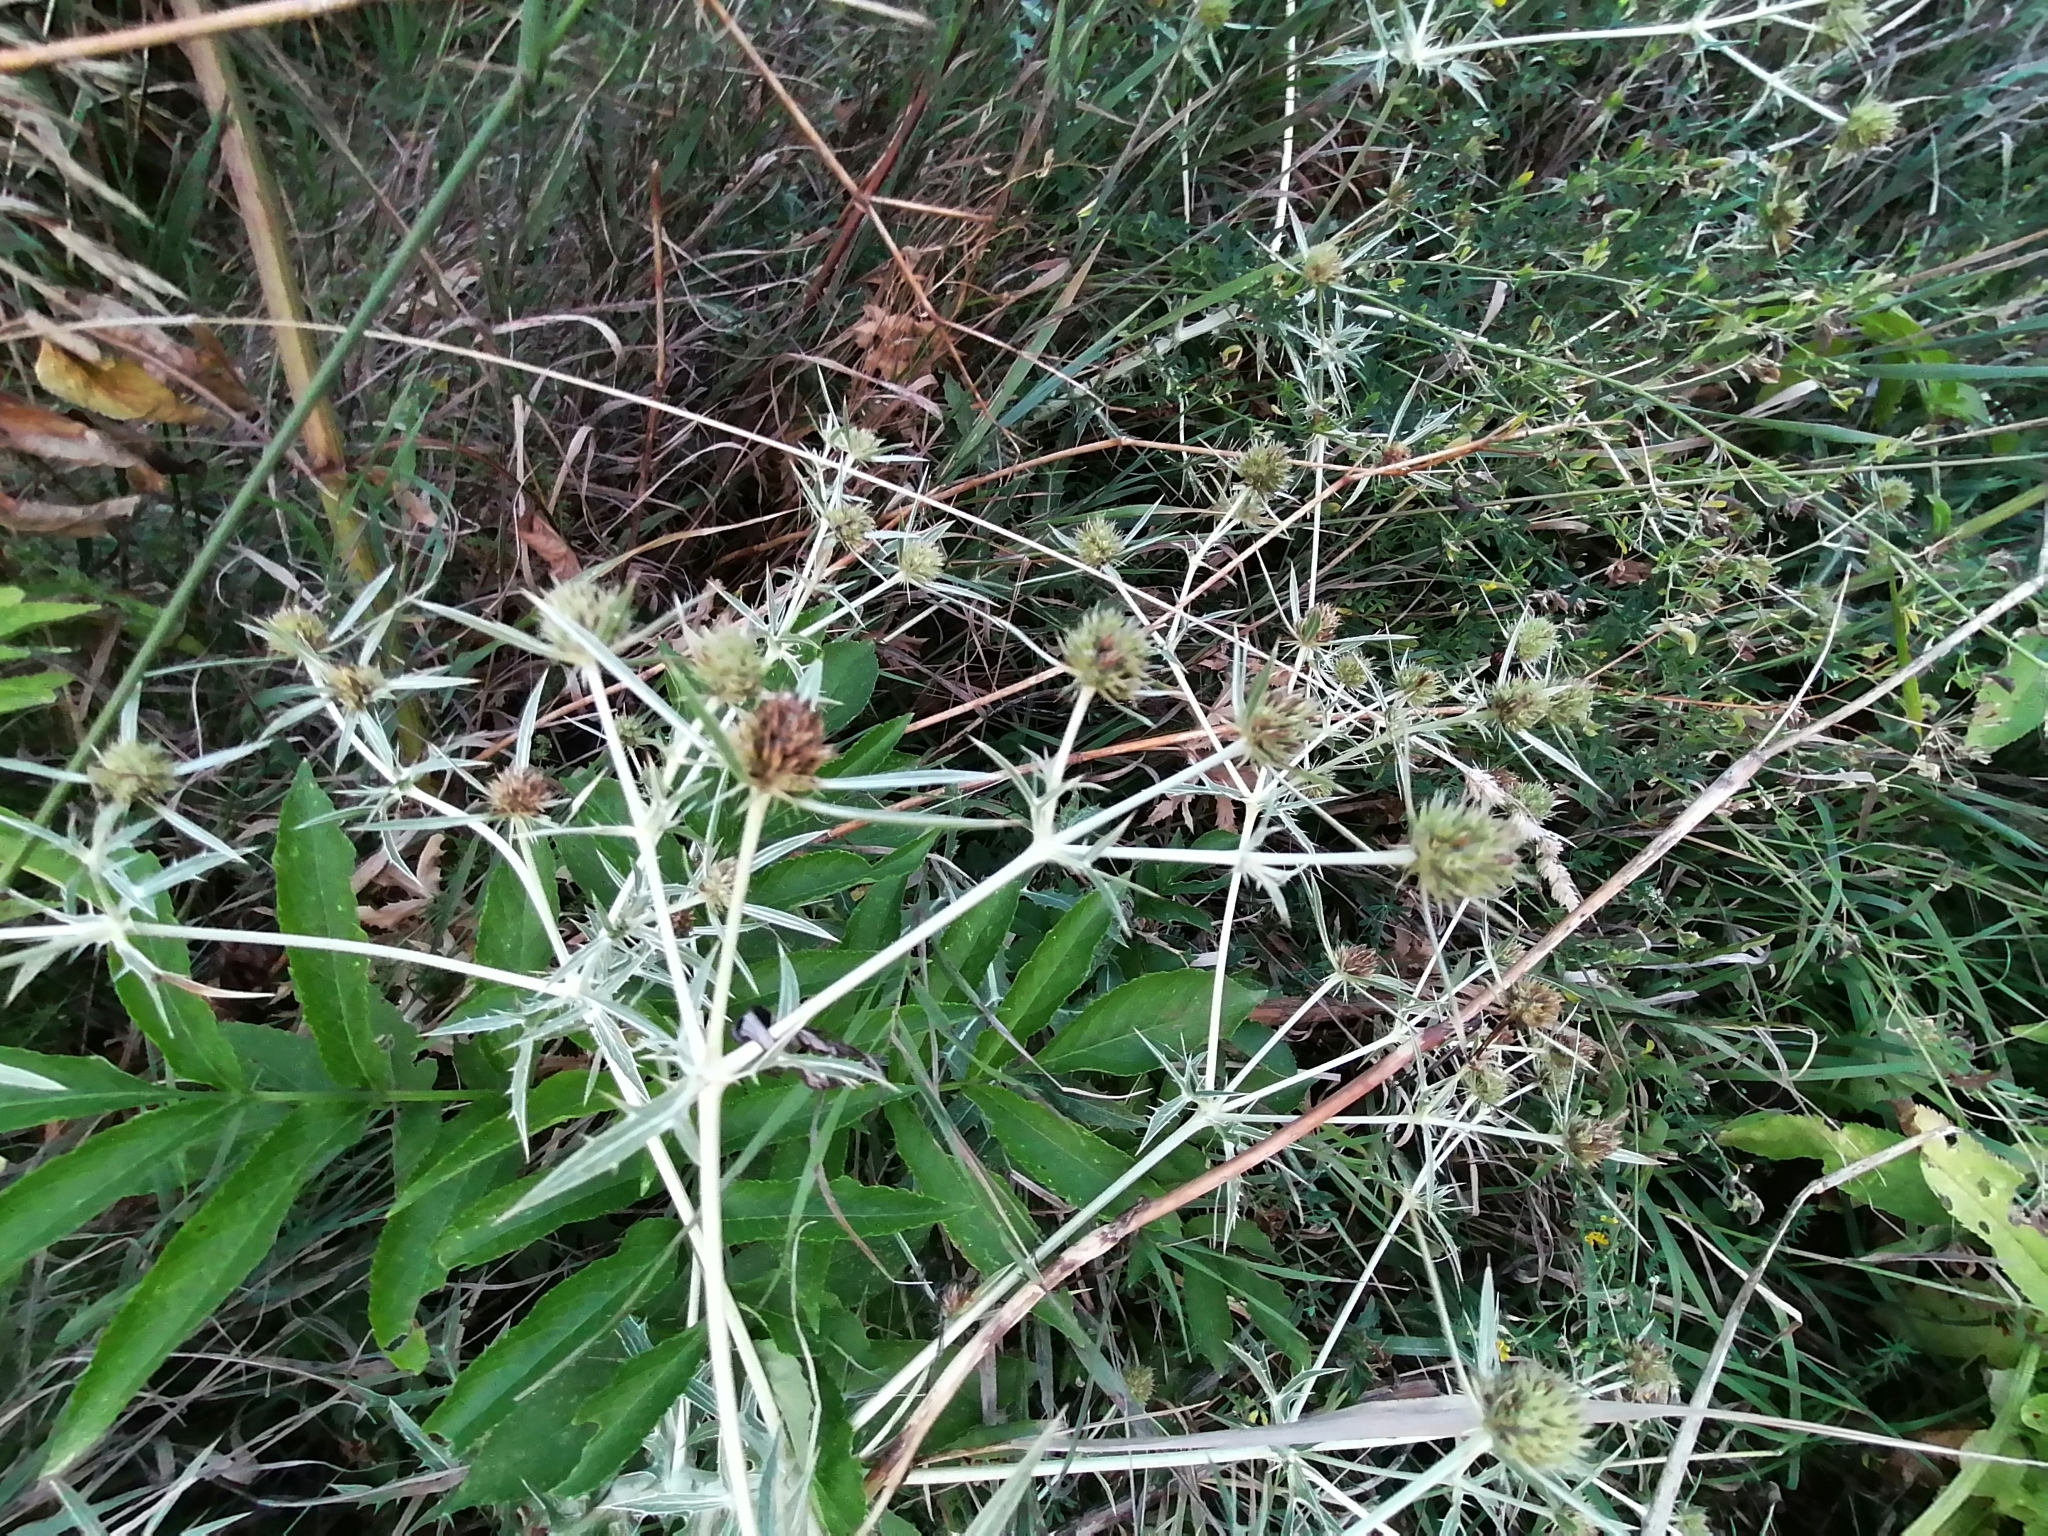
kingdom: Plantae
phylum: Tracheophyta
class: Magnoliopsida
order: Apiales
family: Apiaceae
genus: Eryngium
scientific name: Eryngium campestre
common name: Field eryngo
